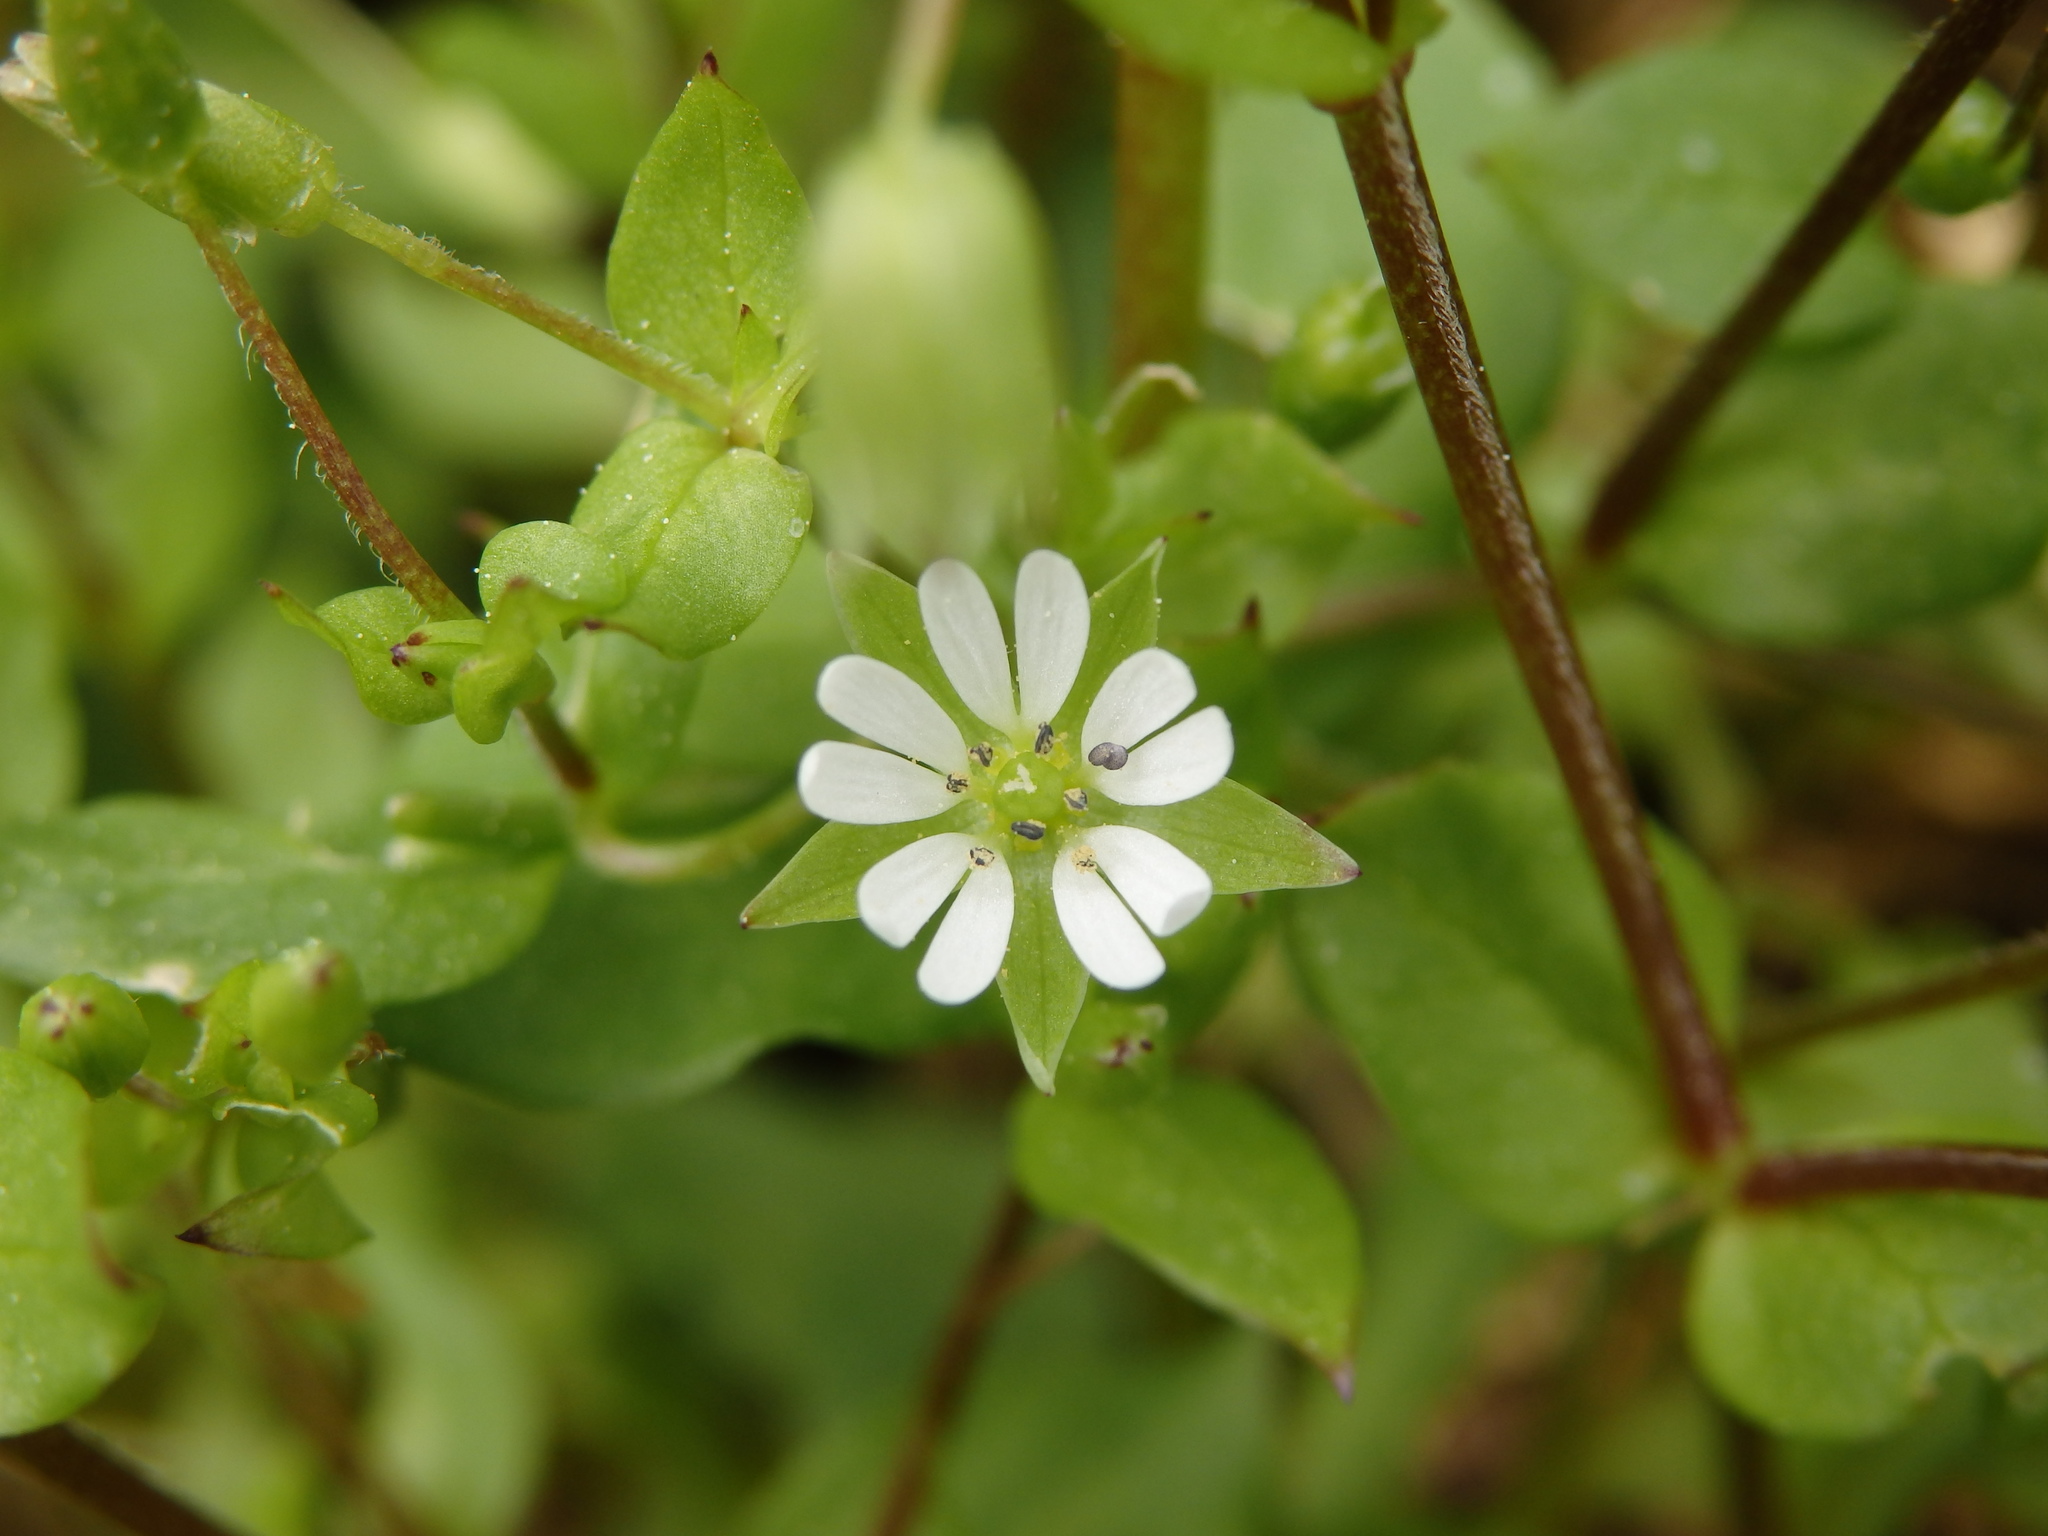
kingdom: Plantae
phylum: Tracheophyta
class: Magnoliopsida
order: Caryophyllales
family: Caryophyllaceae
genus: Stellaria
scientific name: Stellaria media
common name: Common chickweed
